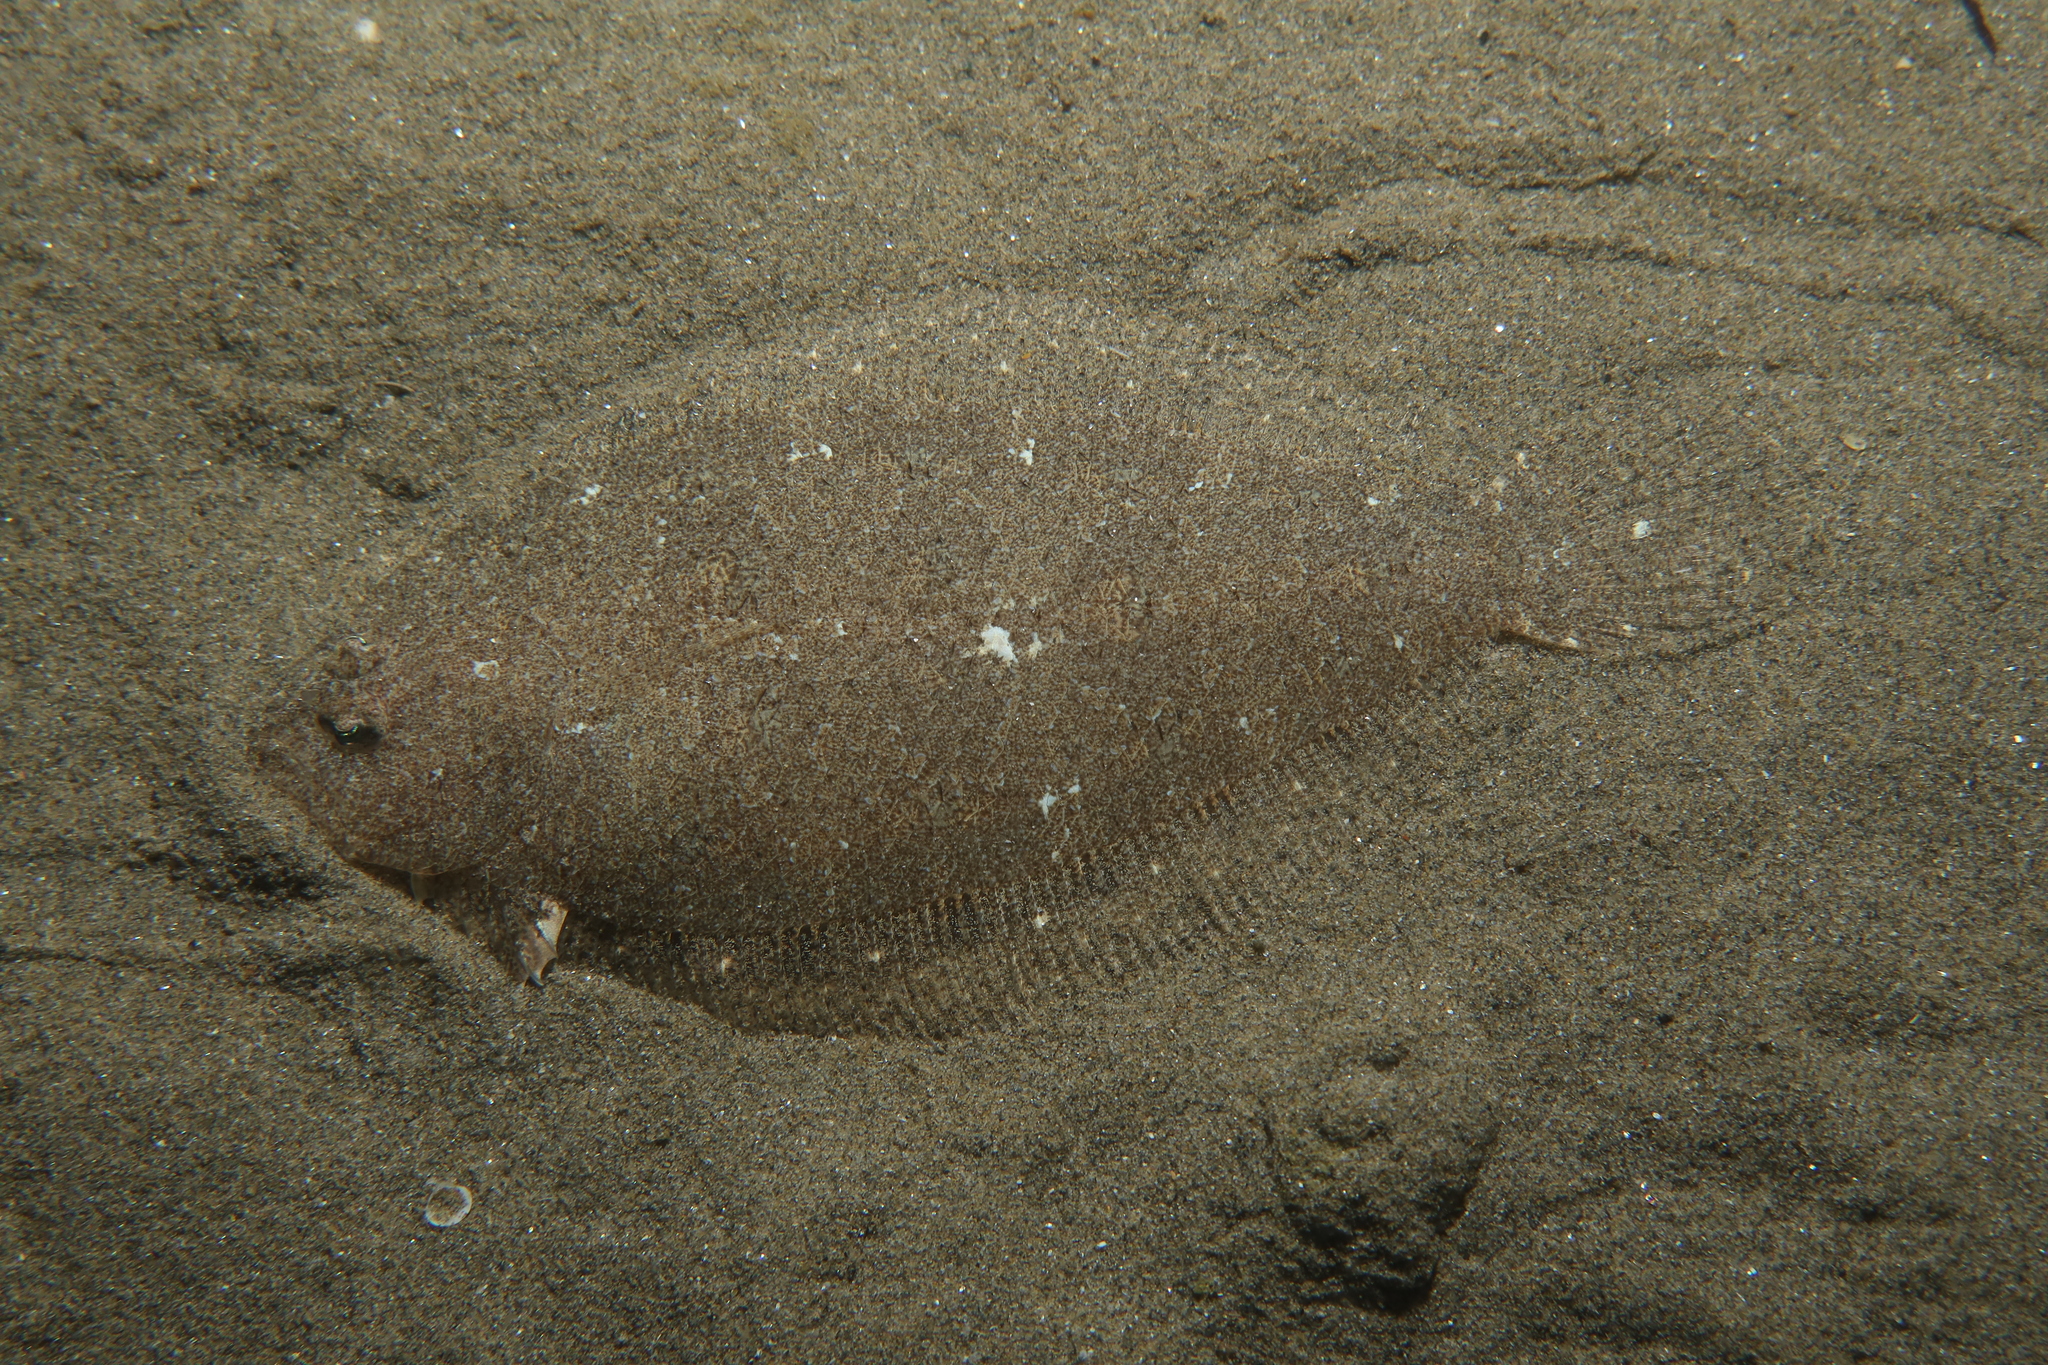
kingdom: Animalia
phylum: Chordata
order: Pleuronectiformes
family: Bothidae
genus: Arnoglossus
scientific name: Arnoglossus laterna
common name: Scaldfish
